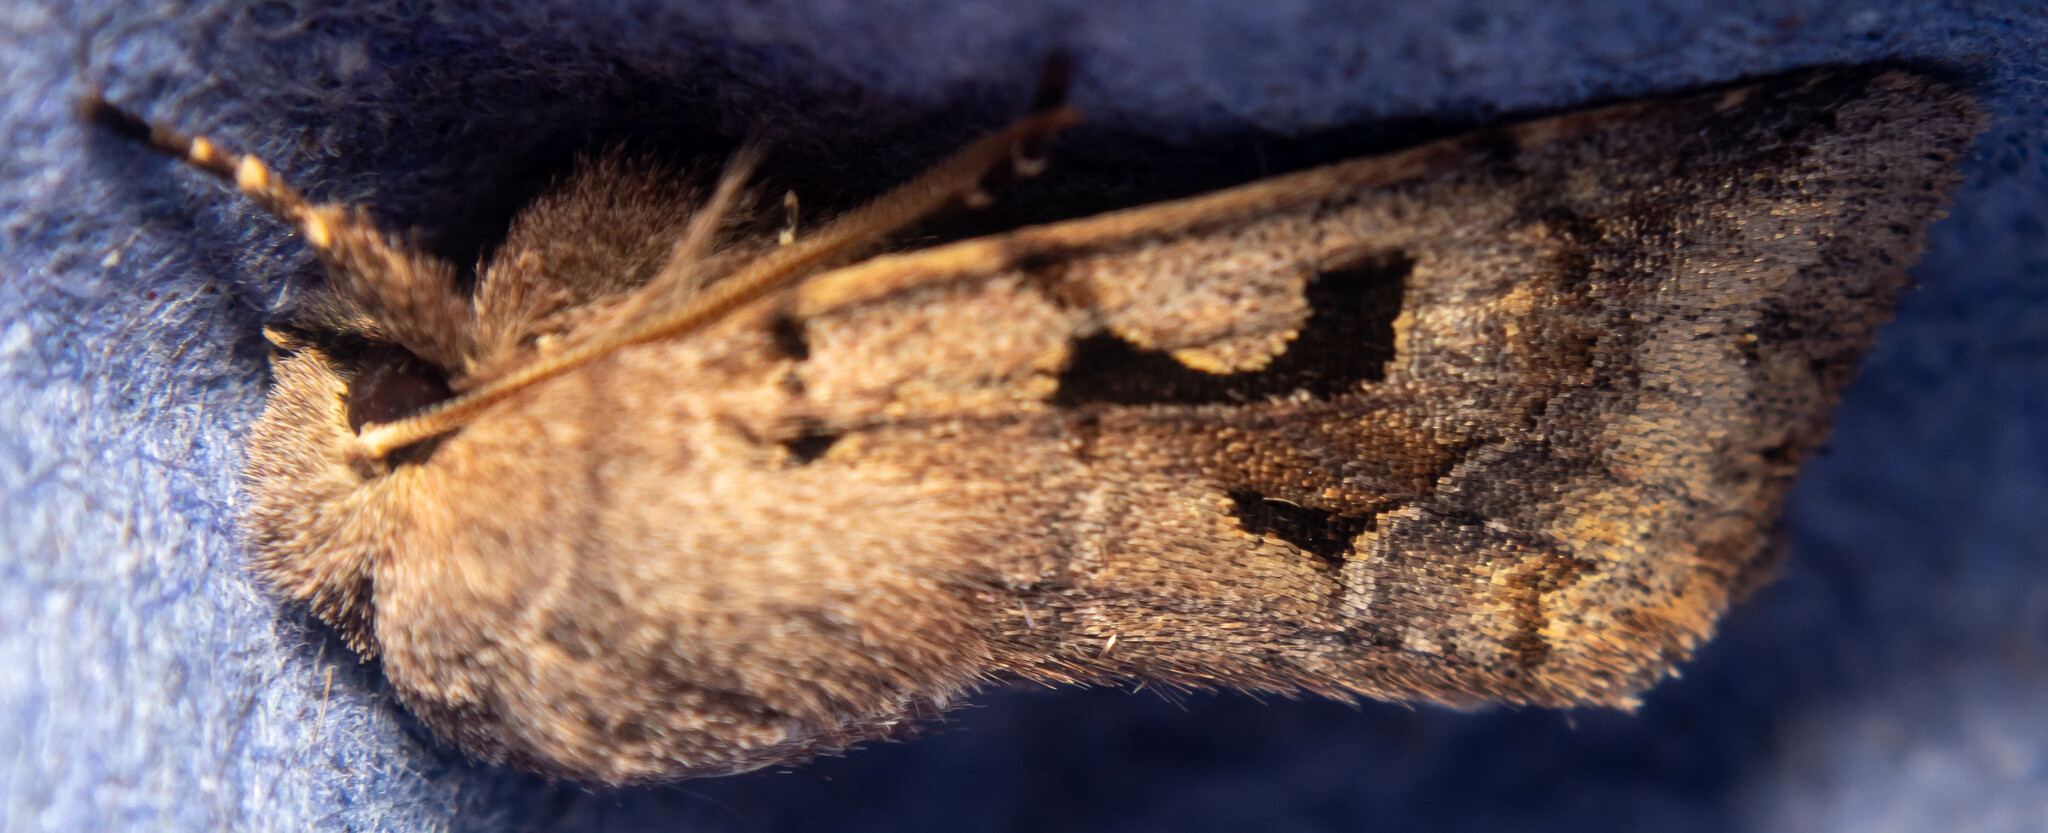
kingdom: Animalia
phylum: Arthropoda
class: Insecta
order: Lepidoptera
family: Noctuidae
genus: Orthosia
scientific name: Orthosia gothica
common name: Hebrew character
